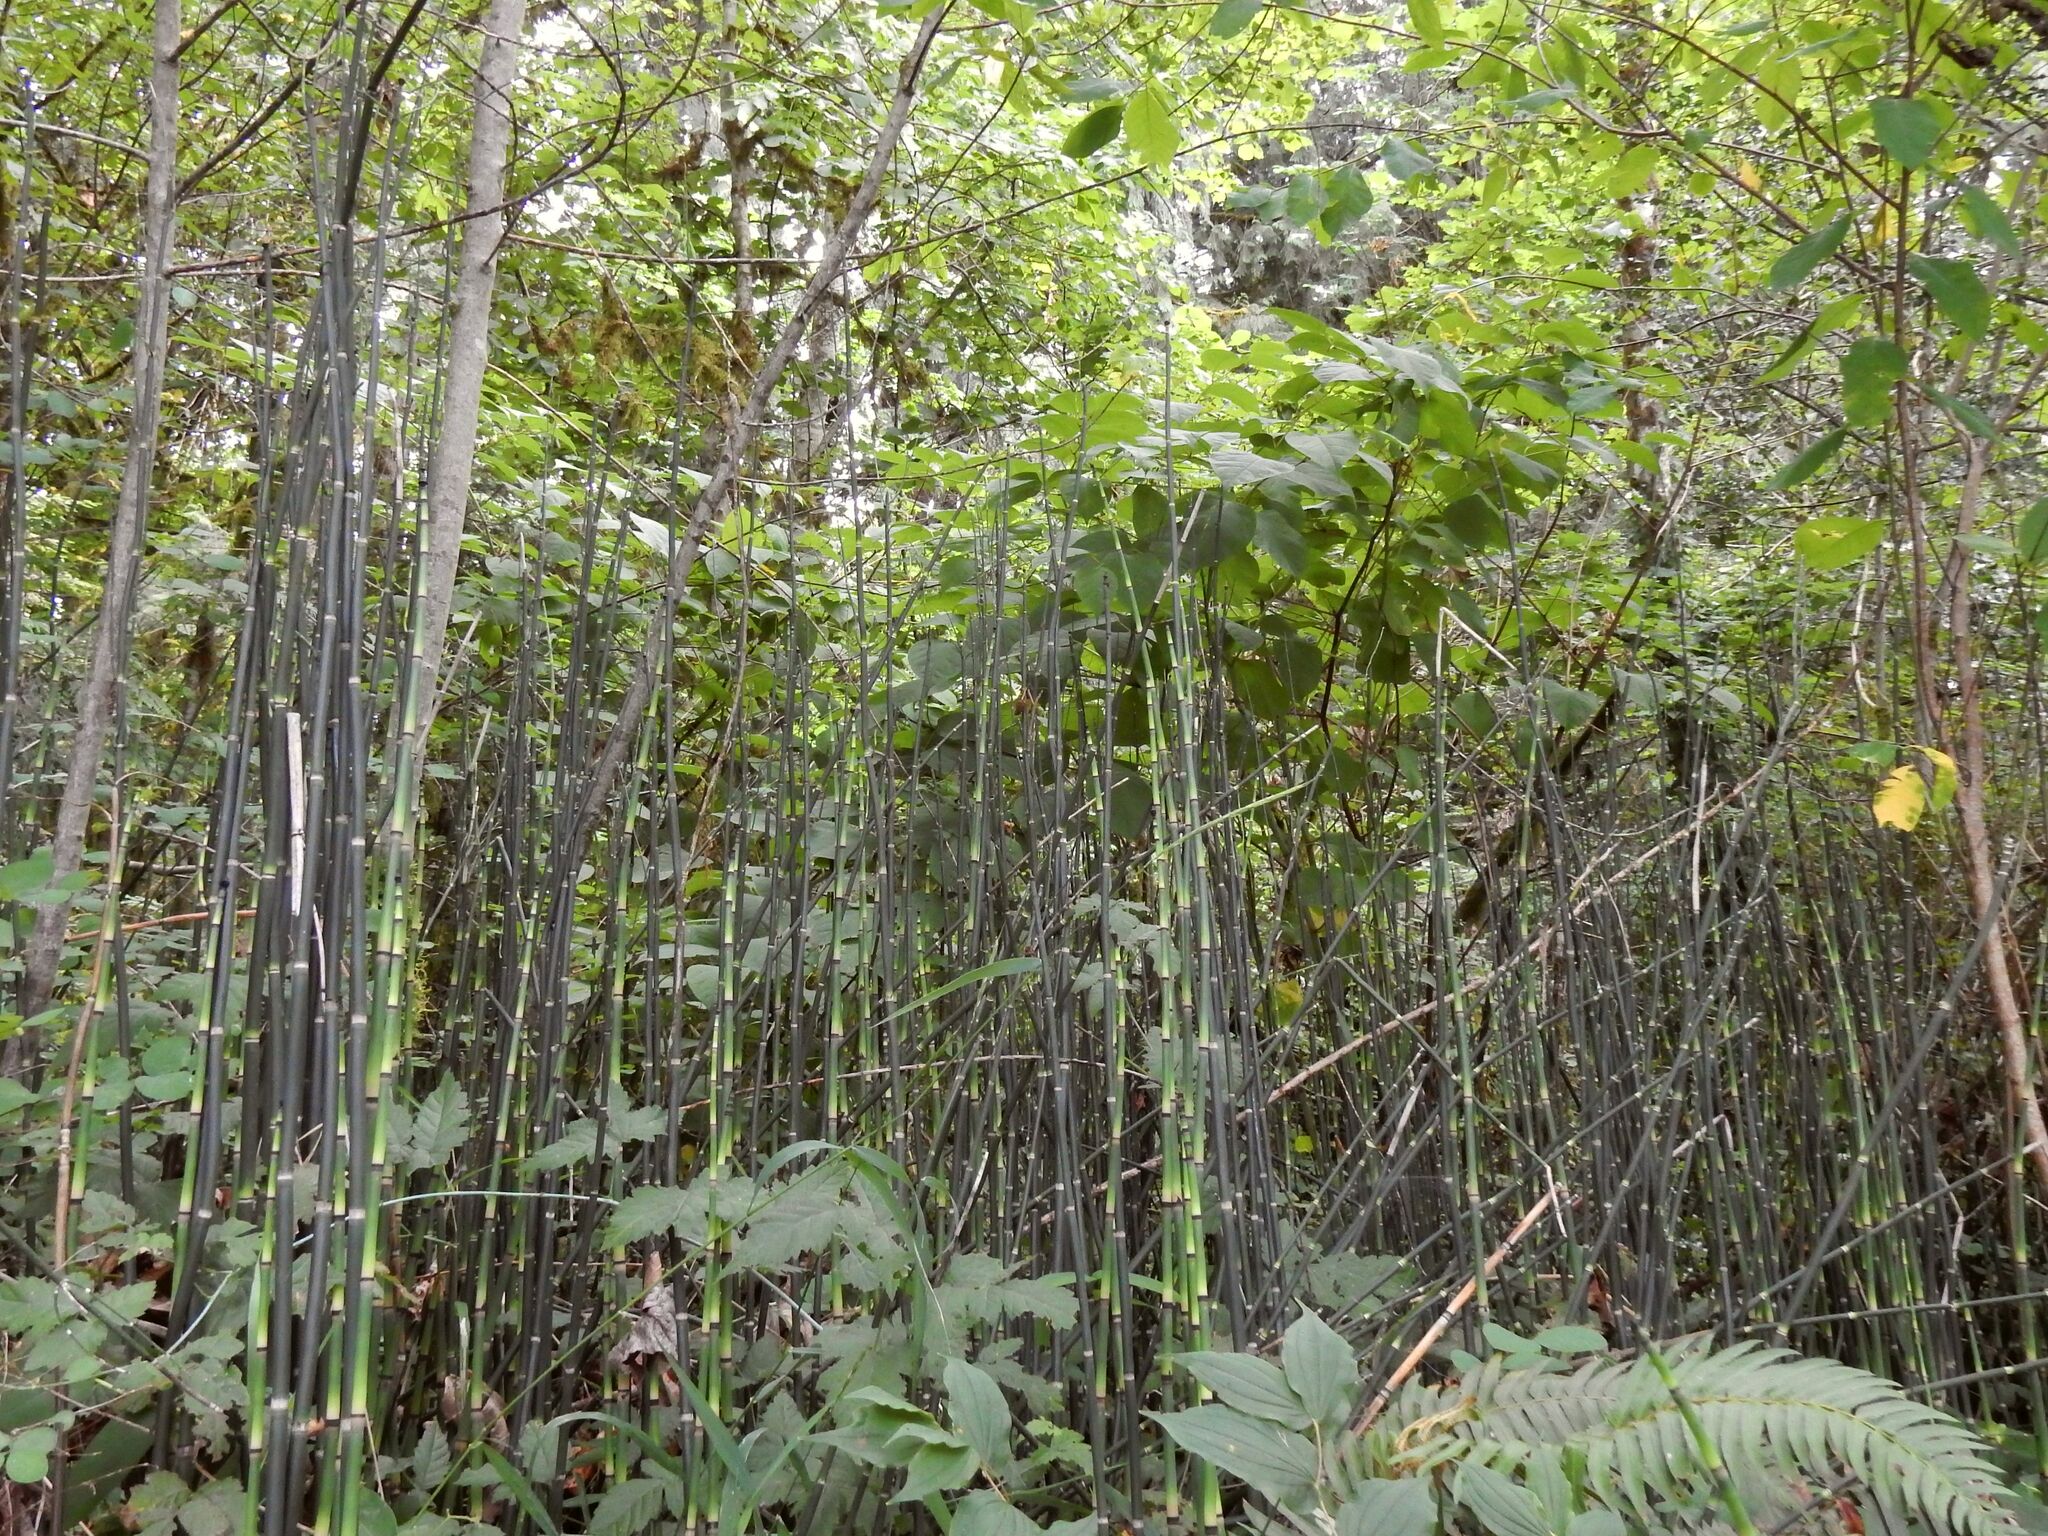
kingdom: Plantae
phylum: Tracheophyta
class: Polypodiopsida
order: Equisetales
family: Equisetaceae
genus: Equisetum
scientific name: Equisetum praealtum
